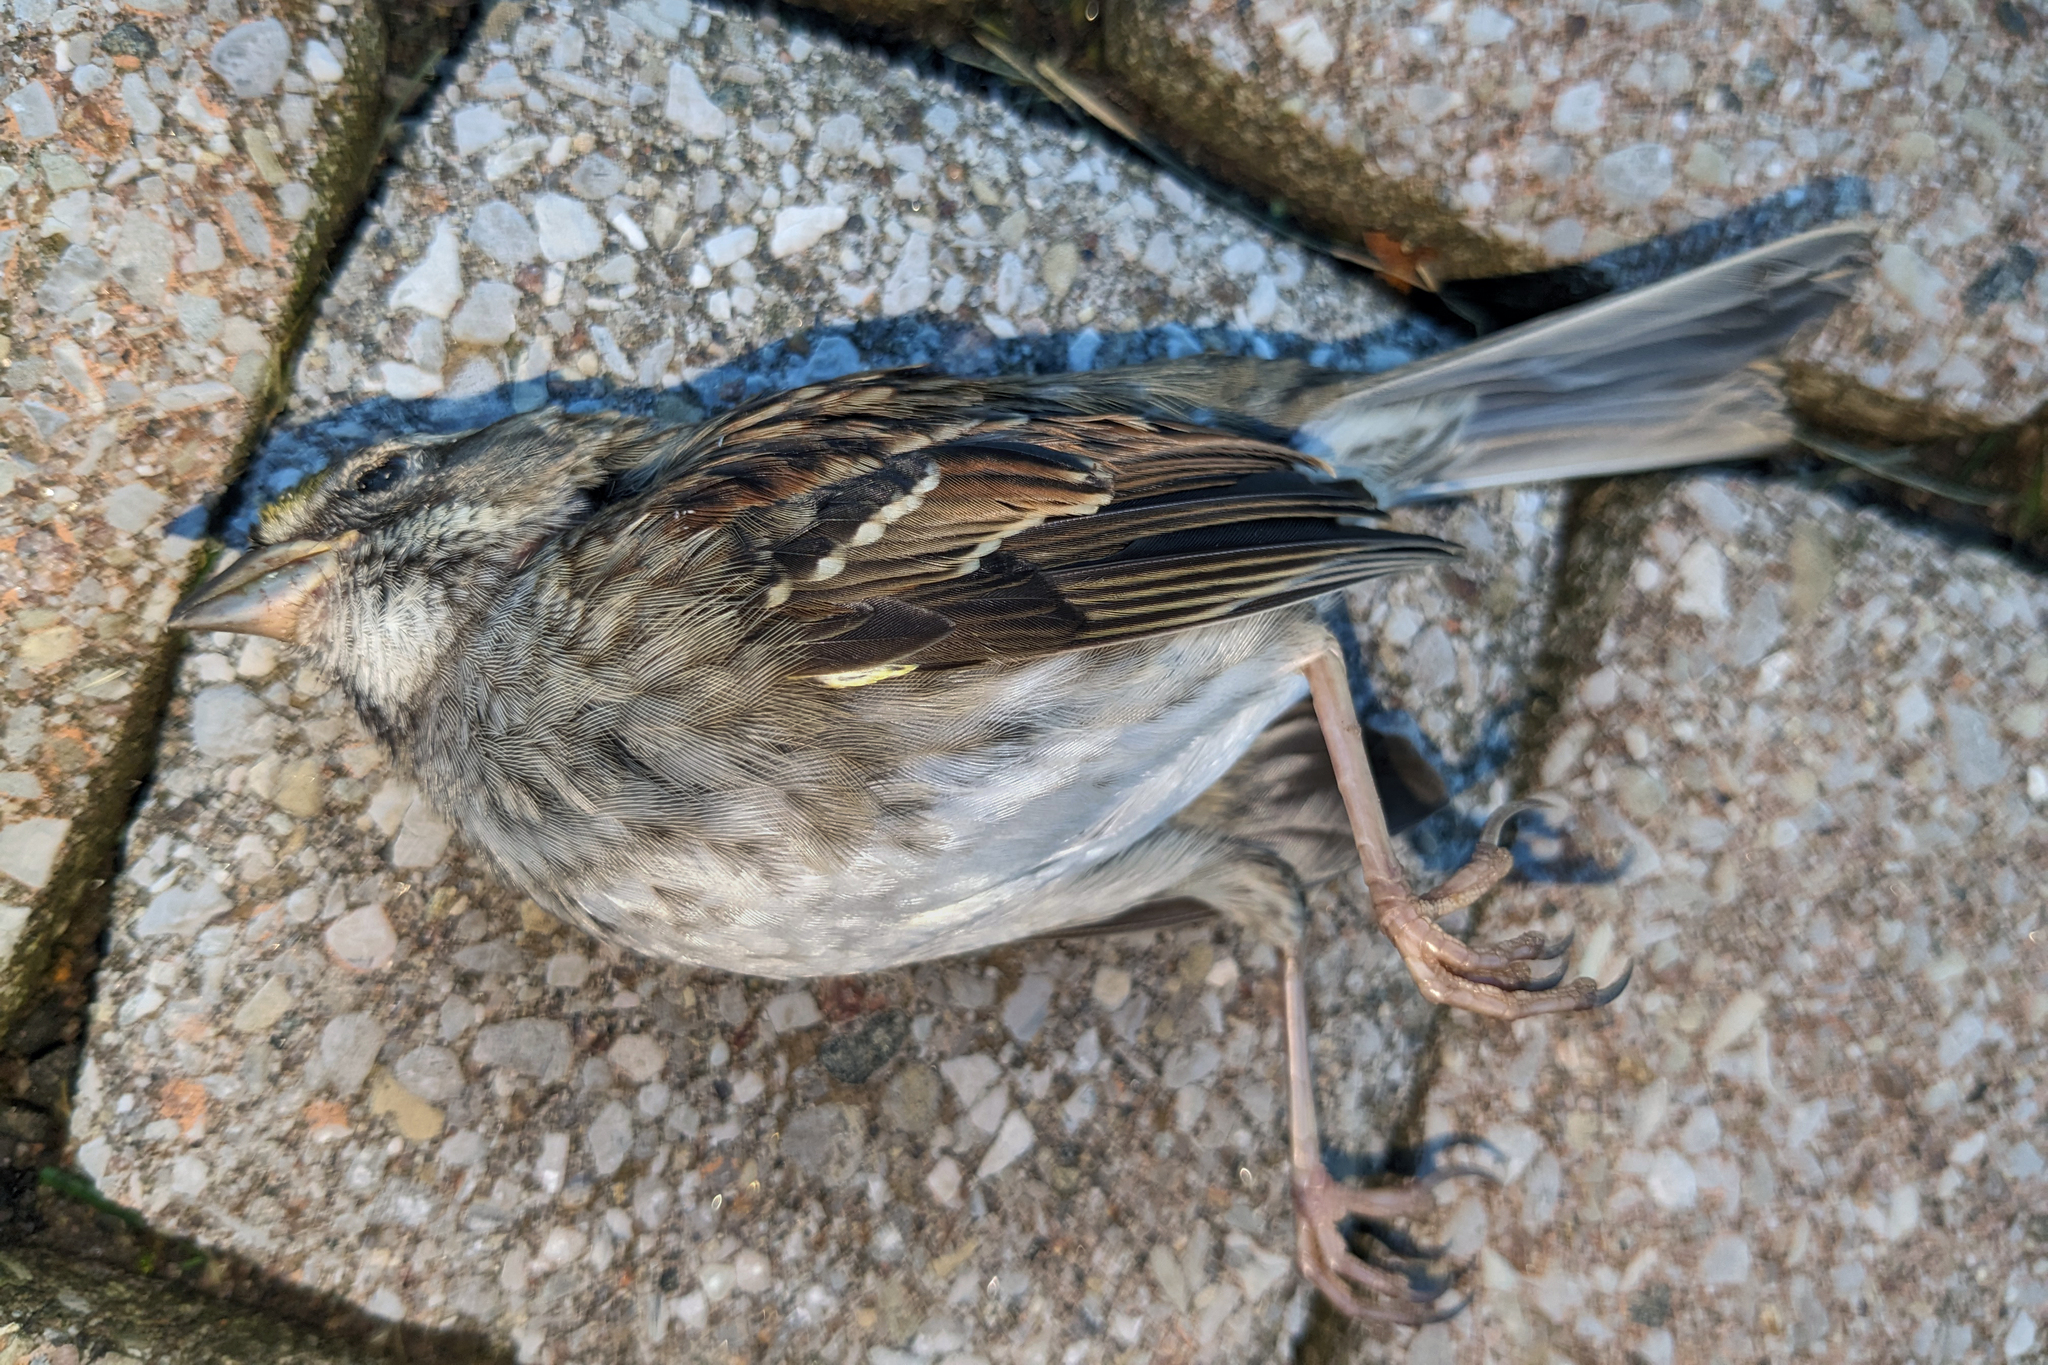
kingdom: Animalia
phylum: Chordata
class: Aves
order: Passeriformes
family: Passerellidae
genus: Zonotrichia
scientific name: Zonotrichia albicollis
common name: White-throated sparrow
